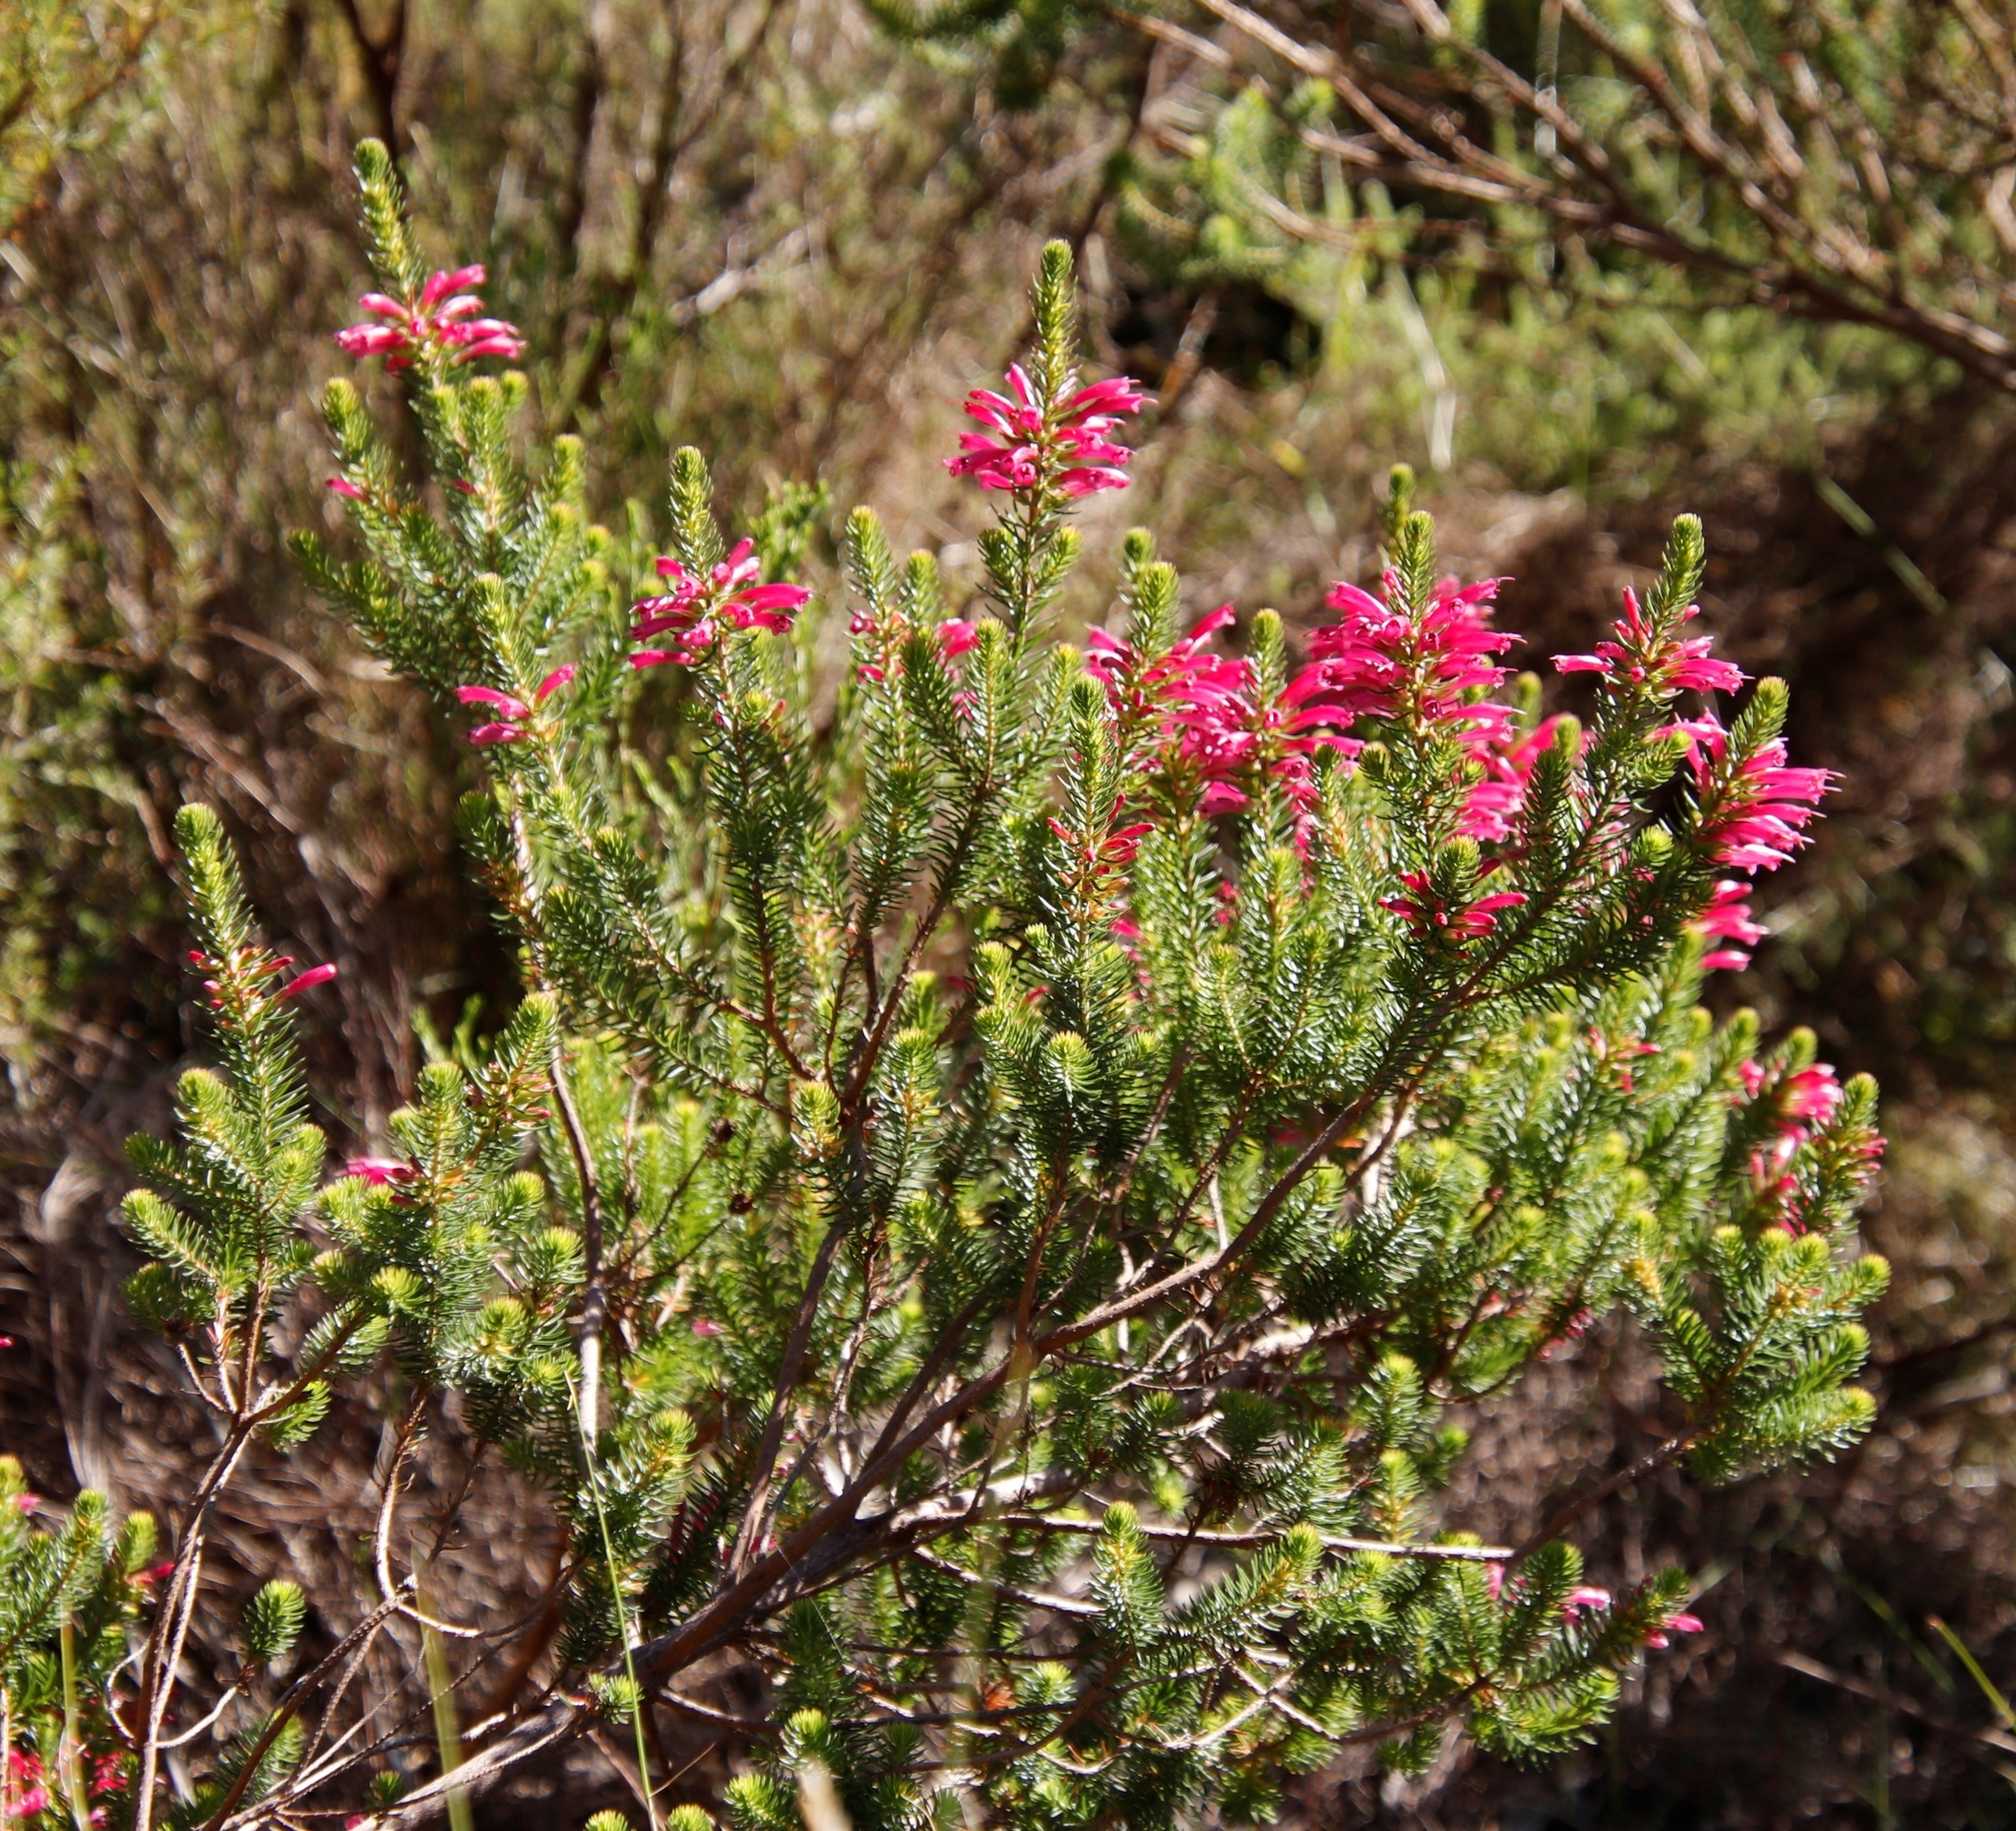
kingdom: Plantae
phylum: Tracheophyta
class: Magnoliopsida
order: Ericales
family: Ericaceae
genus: Erica
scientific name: Erica abietina
